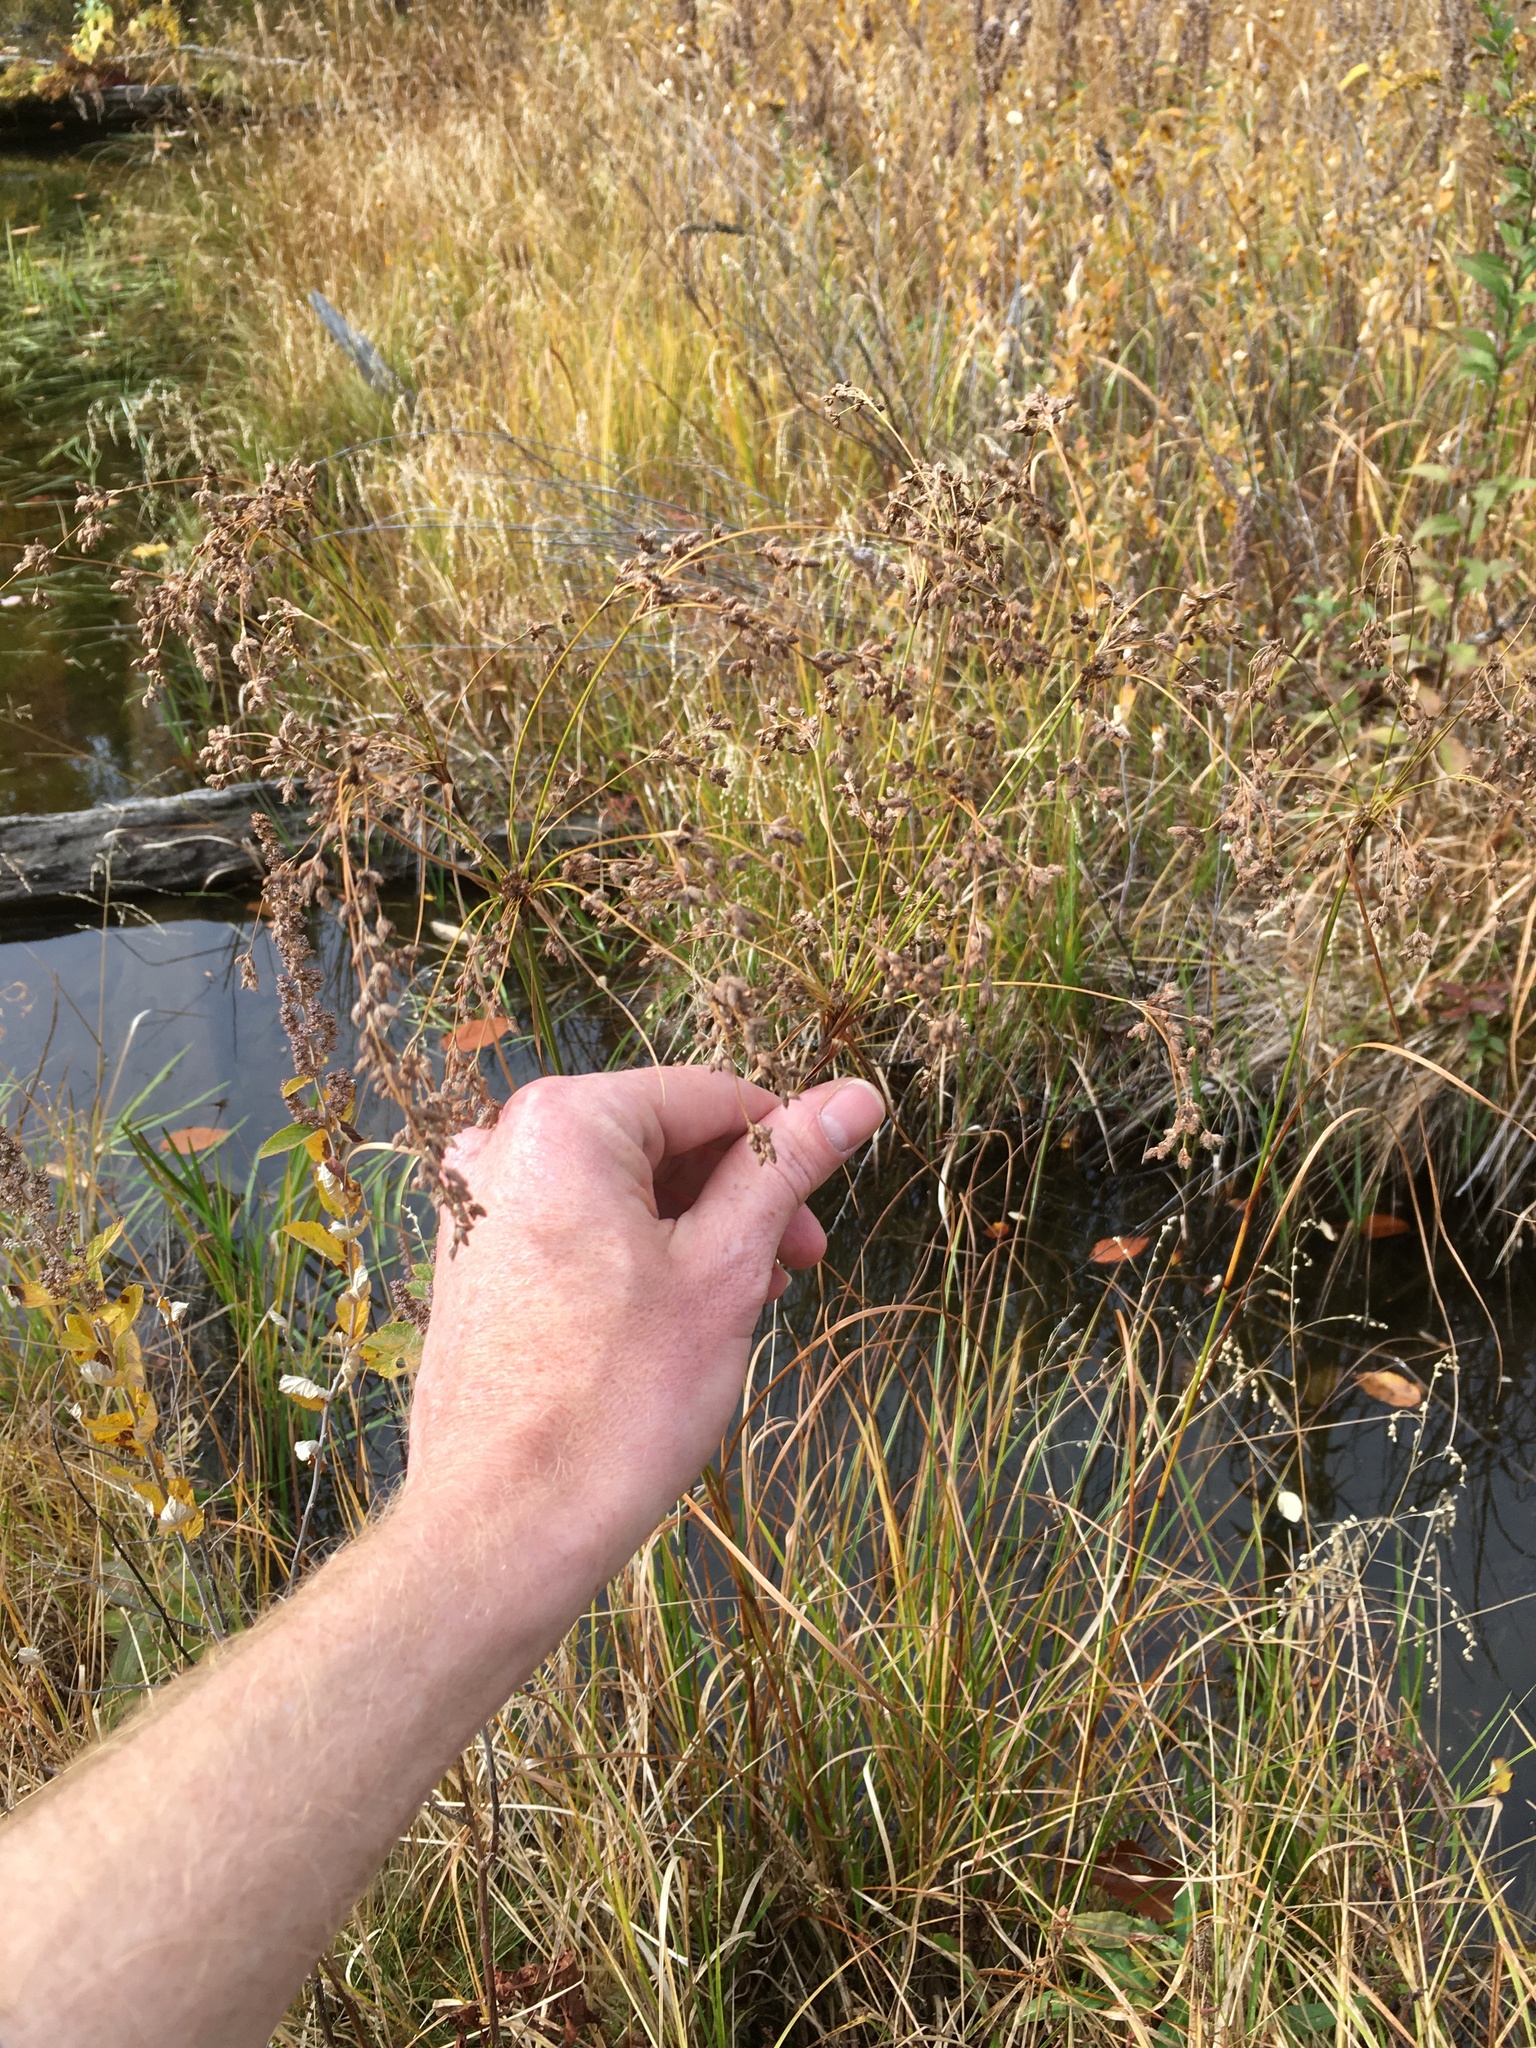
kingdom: Plantae
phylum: Tracheophyta
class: Liliopsida
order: Poales
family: Cyperaceae
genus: Scirpus
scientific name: Scirpus atrocinctus
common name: Black-girdled bulrush
